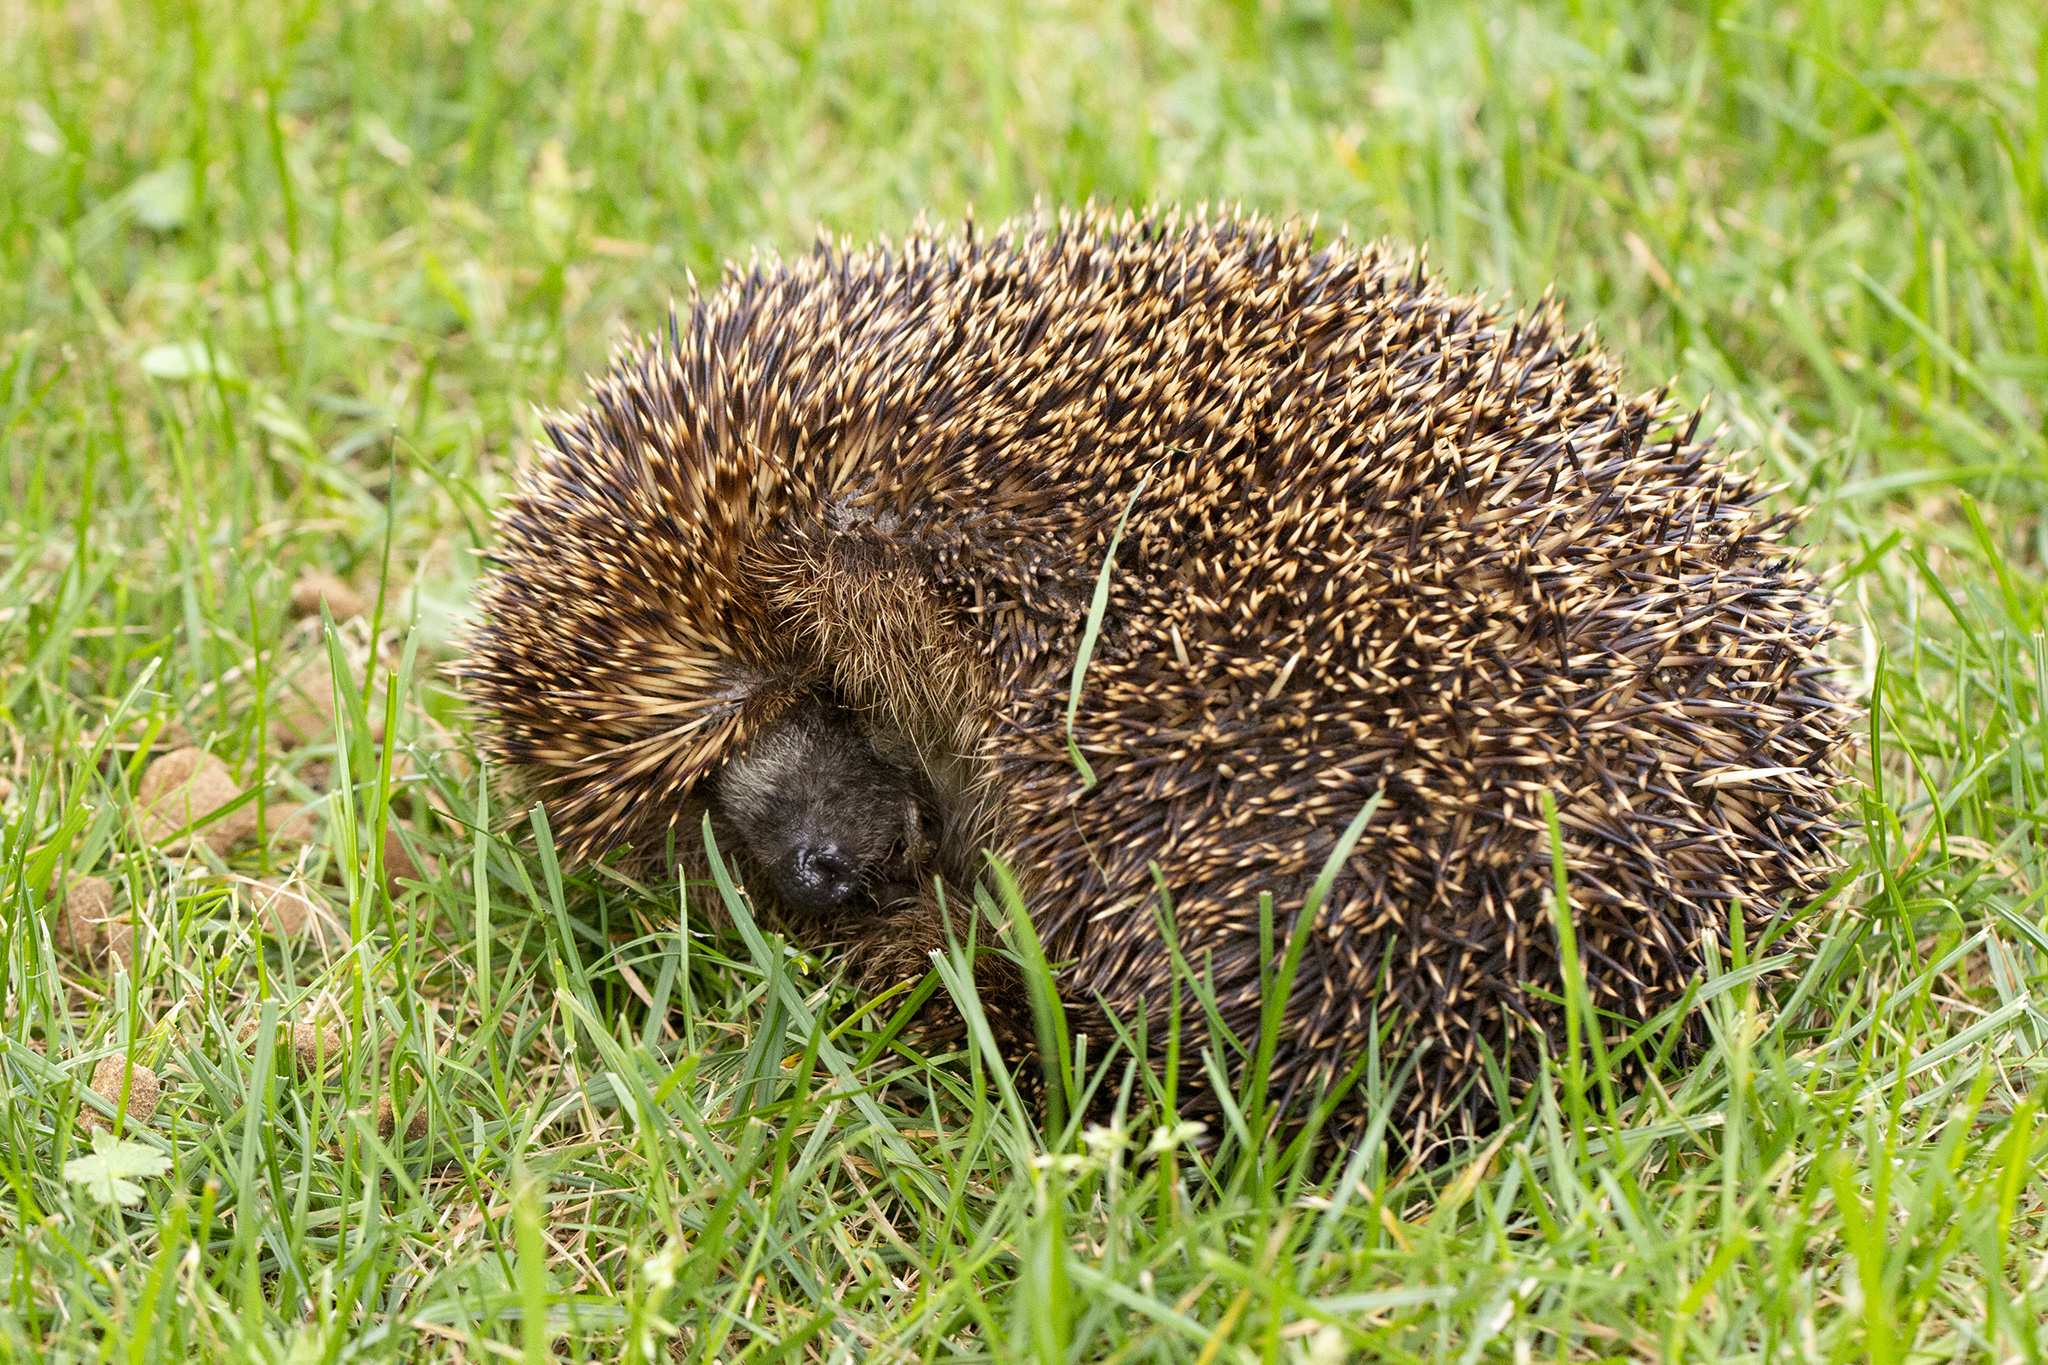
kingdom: Animalia
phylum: Chordata
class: Mammalia
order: Erinaceomorpha
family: Erinaceidae
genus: Erinaceus
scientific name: Erinaceus europaeus
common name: West european hedgehog
